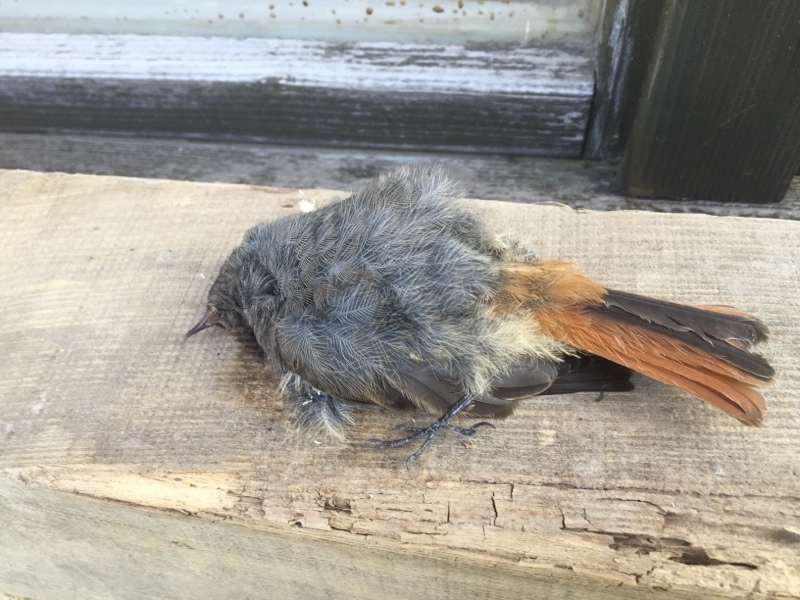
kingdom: Animalia
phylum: Chordata
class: Aves
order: Passeriformes
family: Muscicapidae
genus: Phoenicurus
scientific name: Phoenicurus ochruros
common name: Black redstart
